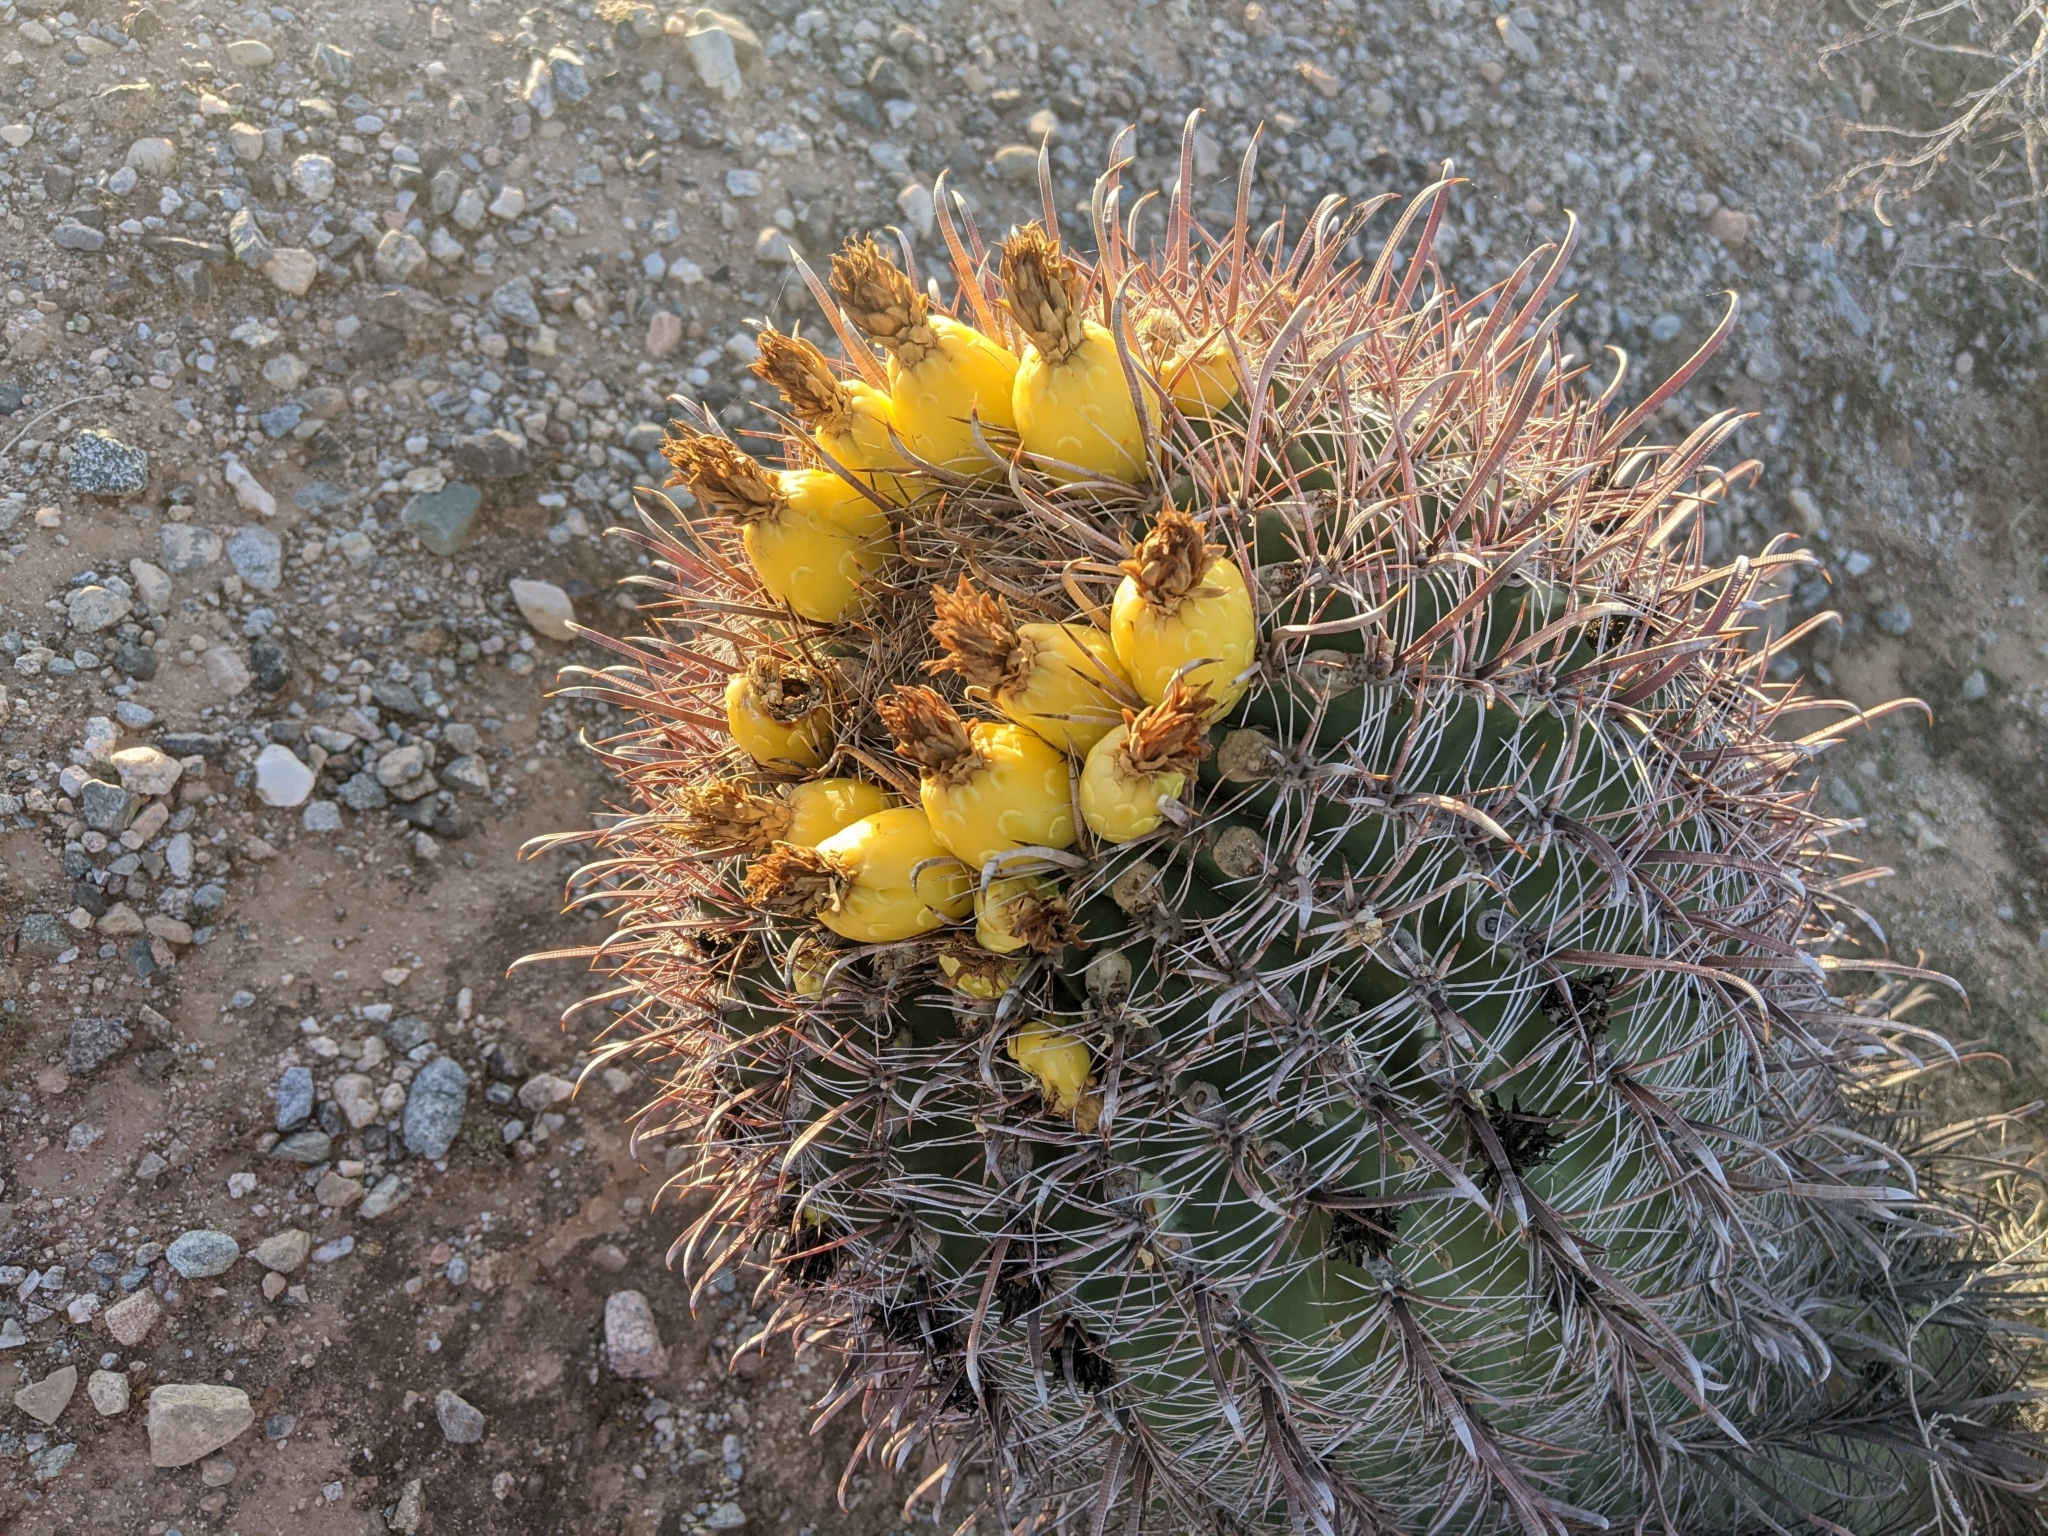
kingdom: Plantae
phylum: Tracheophyta
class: Magnoliopsida
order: Caryophyllales
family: Cactaceae
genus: Ferocactus
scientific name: Ferocactus wislizeni
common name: Candy barrel cactus
